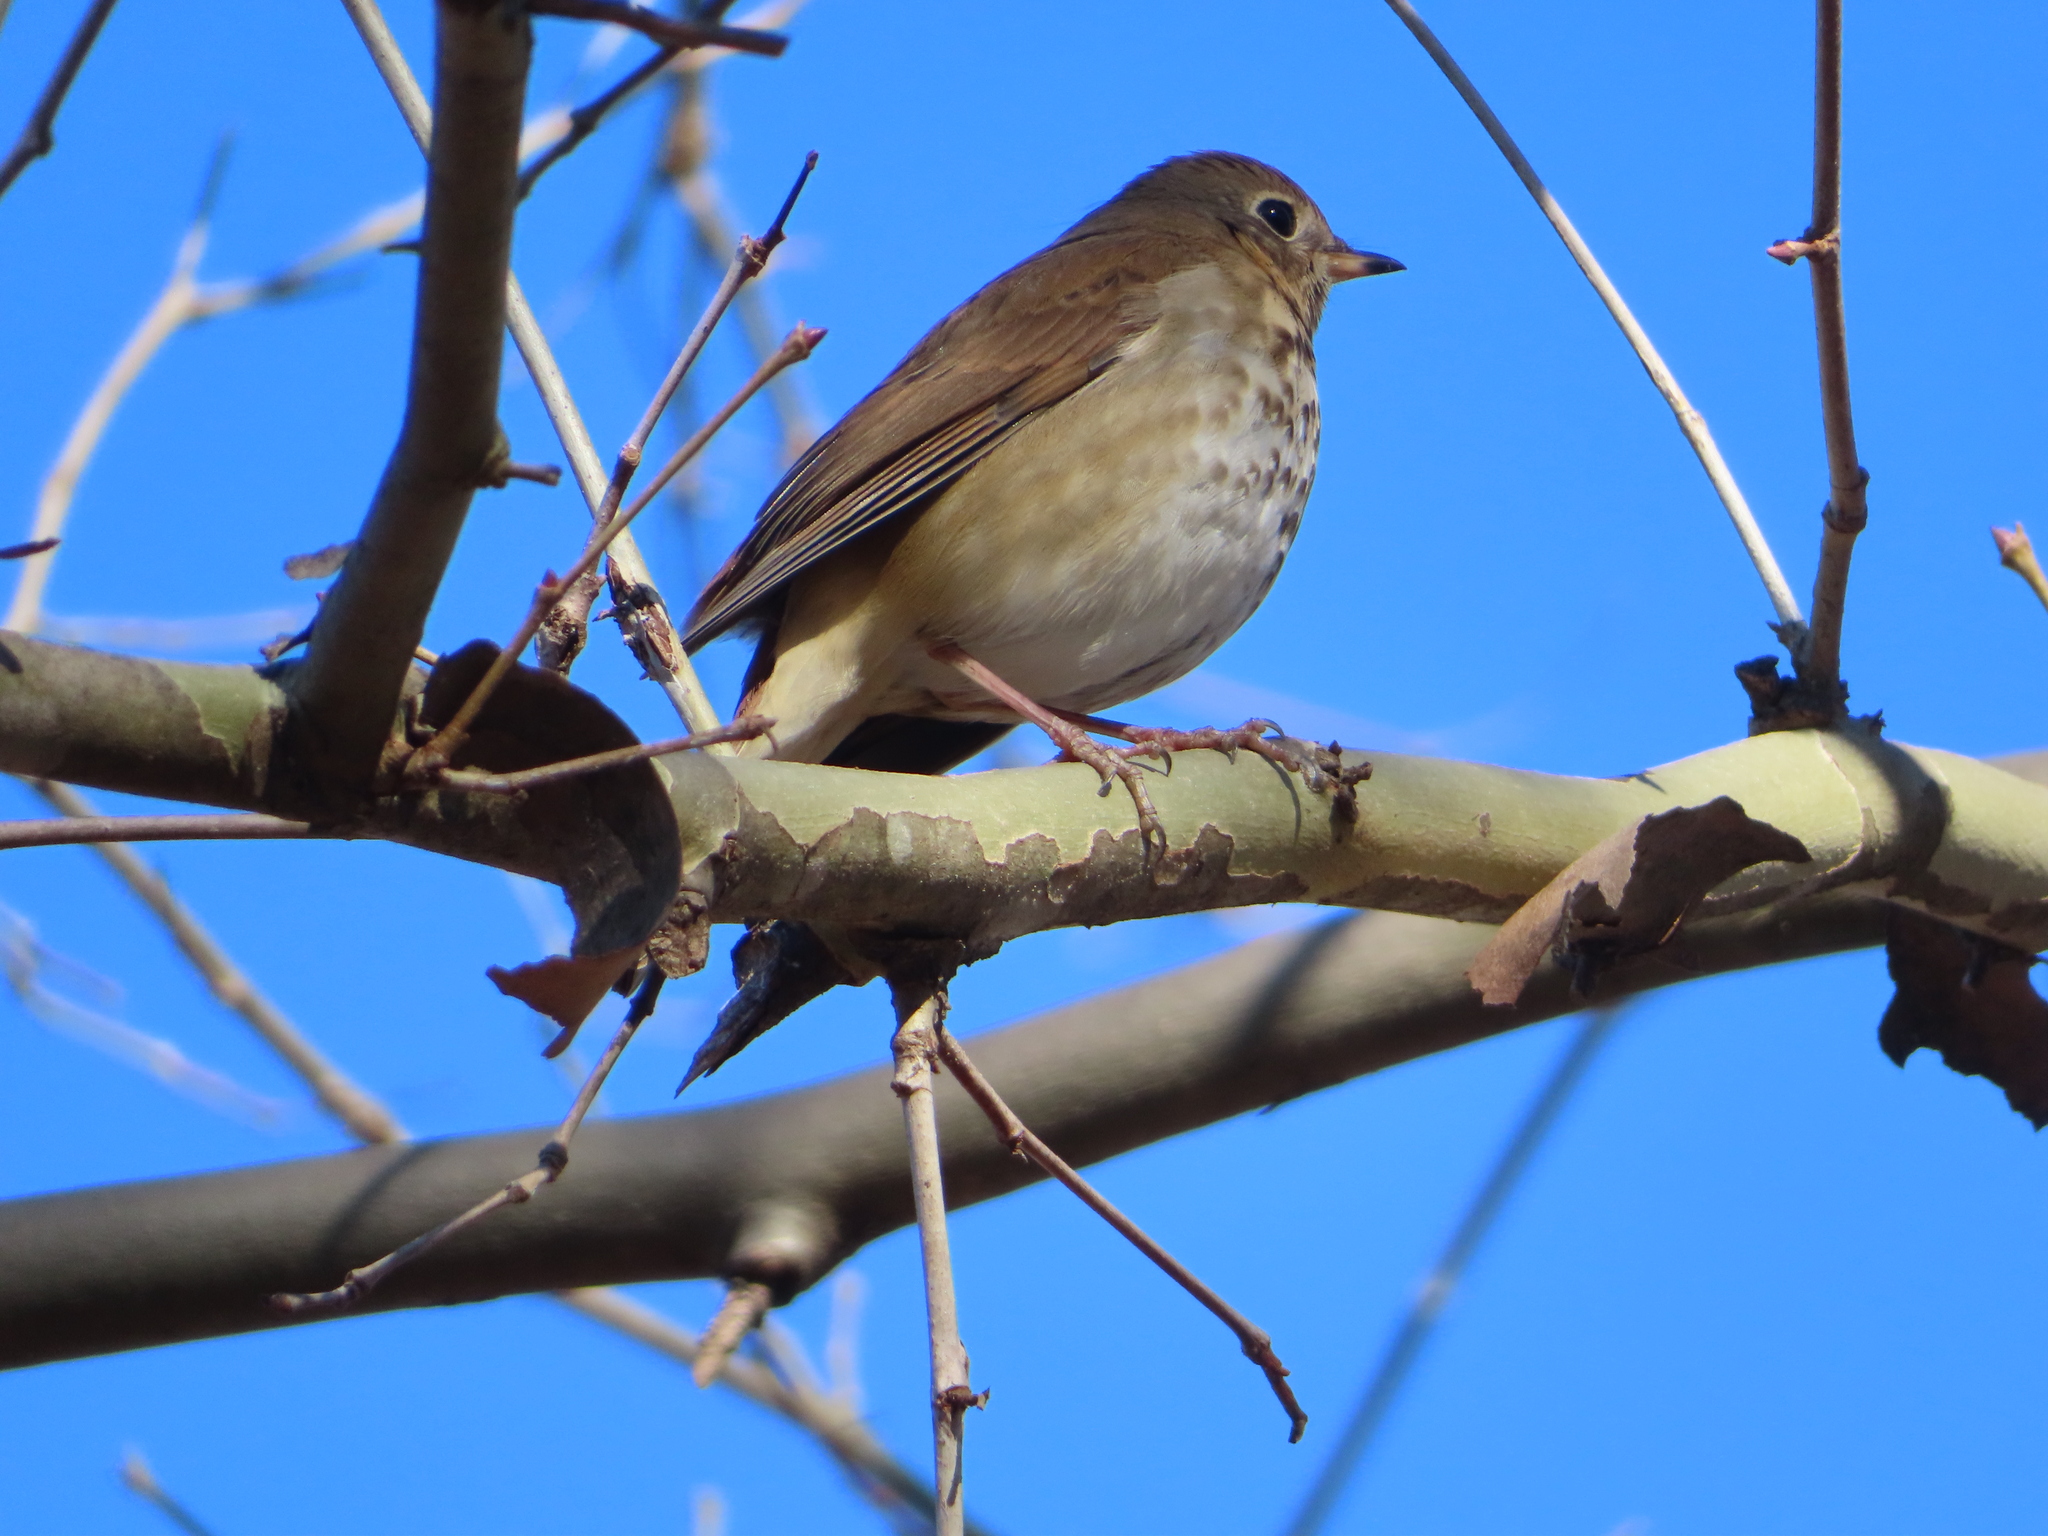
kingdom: Animalia
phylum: Chordata
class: Aves
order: Passeriformes
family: Turdidae
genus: Catharus
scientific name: Catharus guttatus
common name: Hermit thrush
